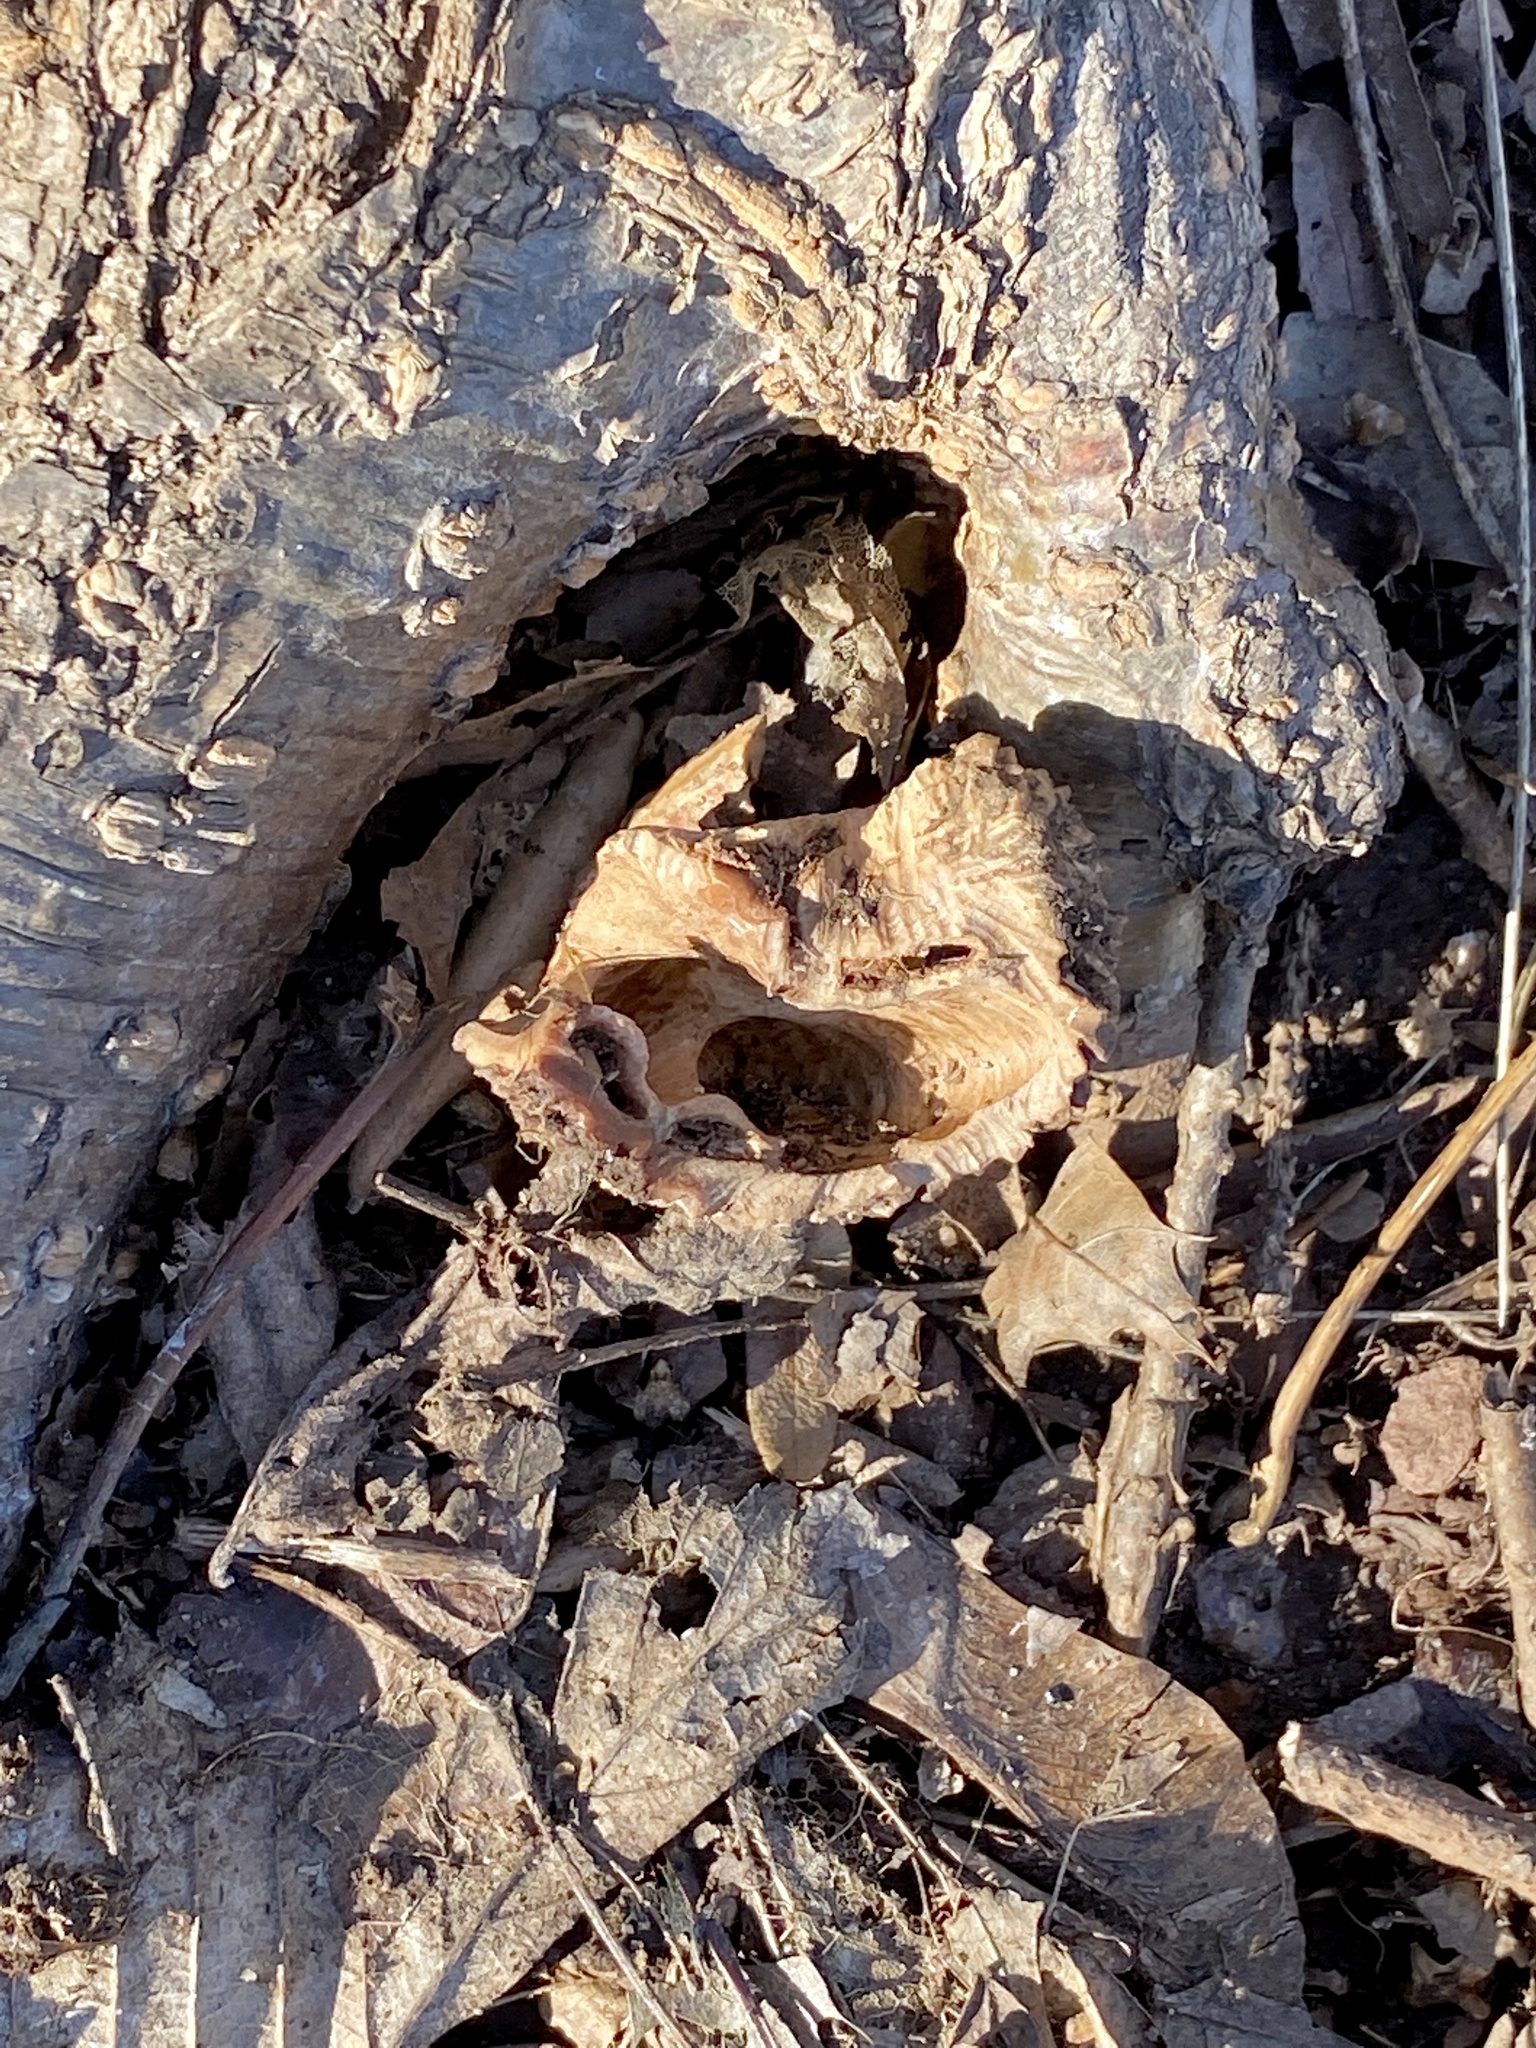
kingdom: Plantae
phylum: Tracheophyta
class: Magnoliopsida
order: Fagales
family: Juglandaceae
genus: Juglans
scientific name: Juglans nigra
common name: Black walnut
